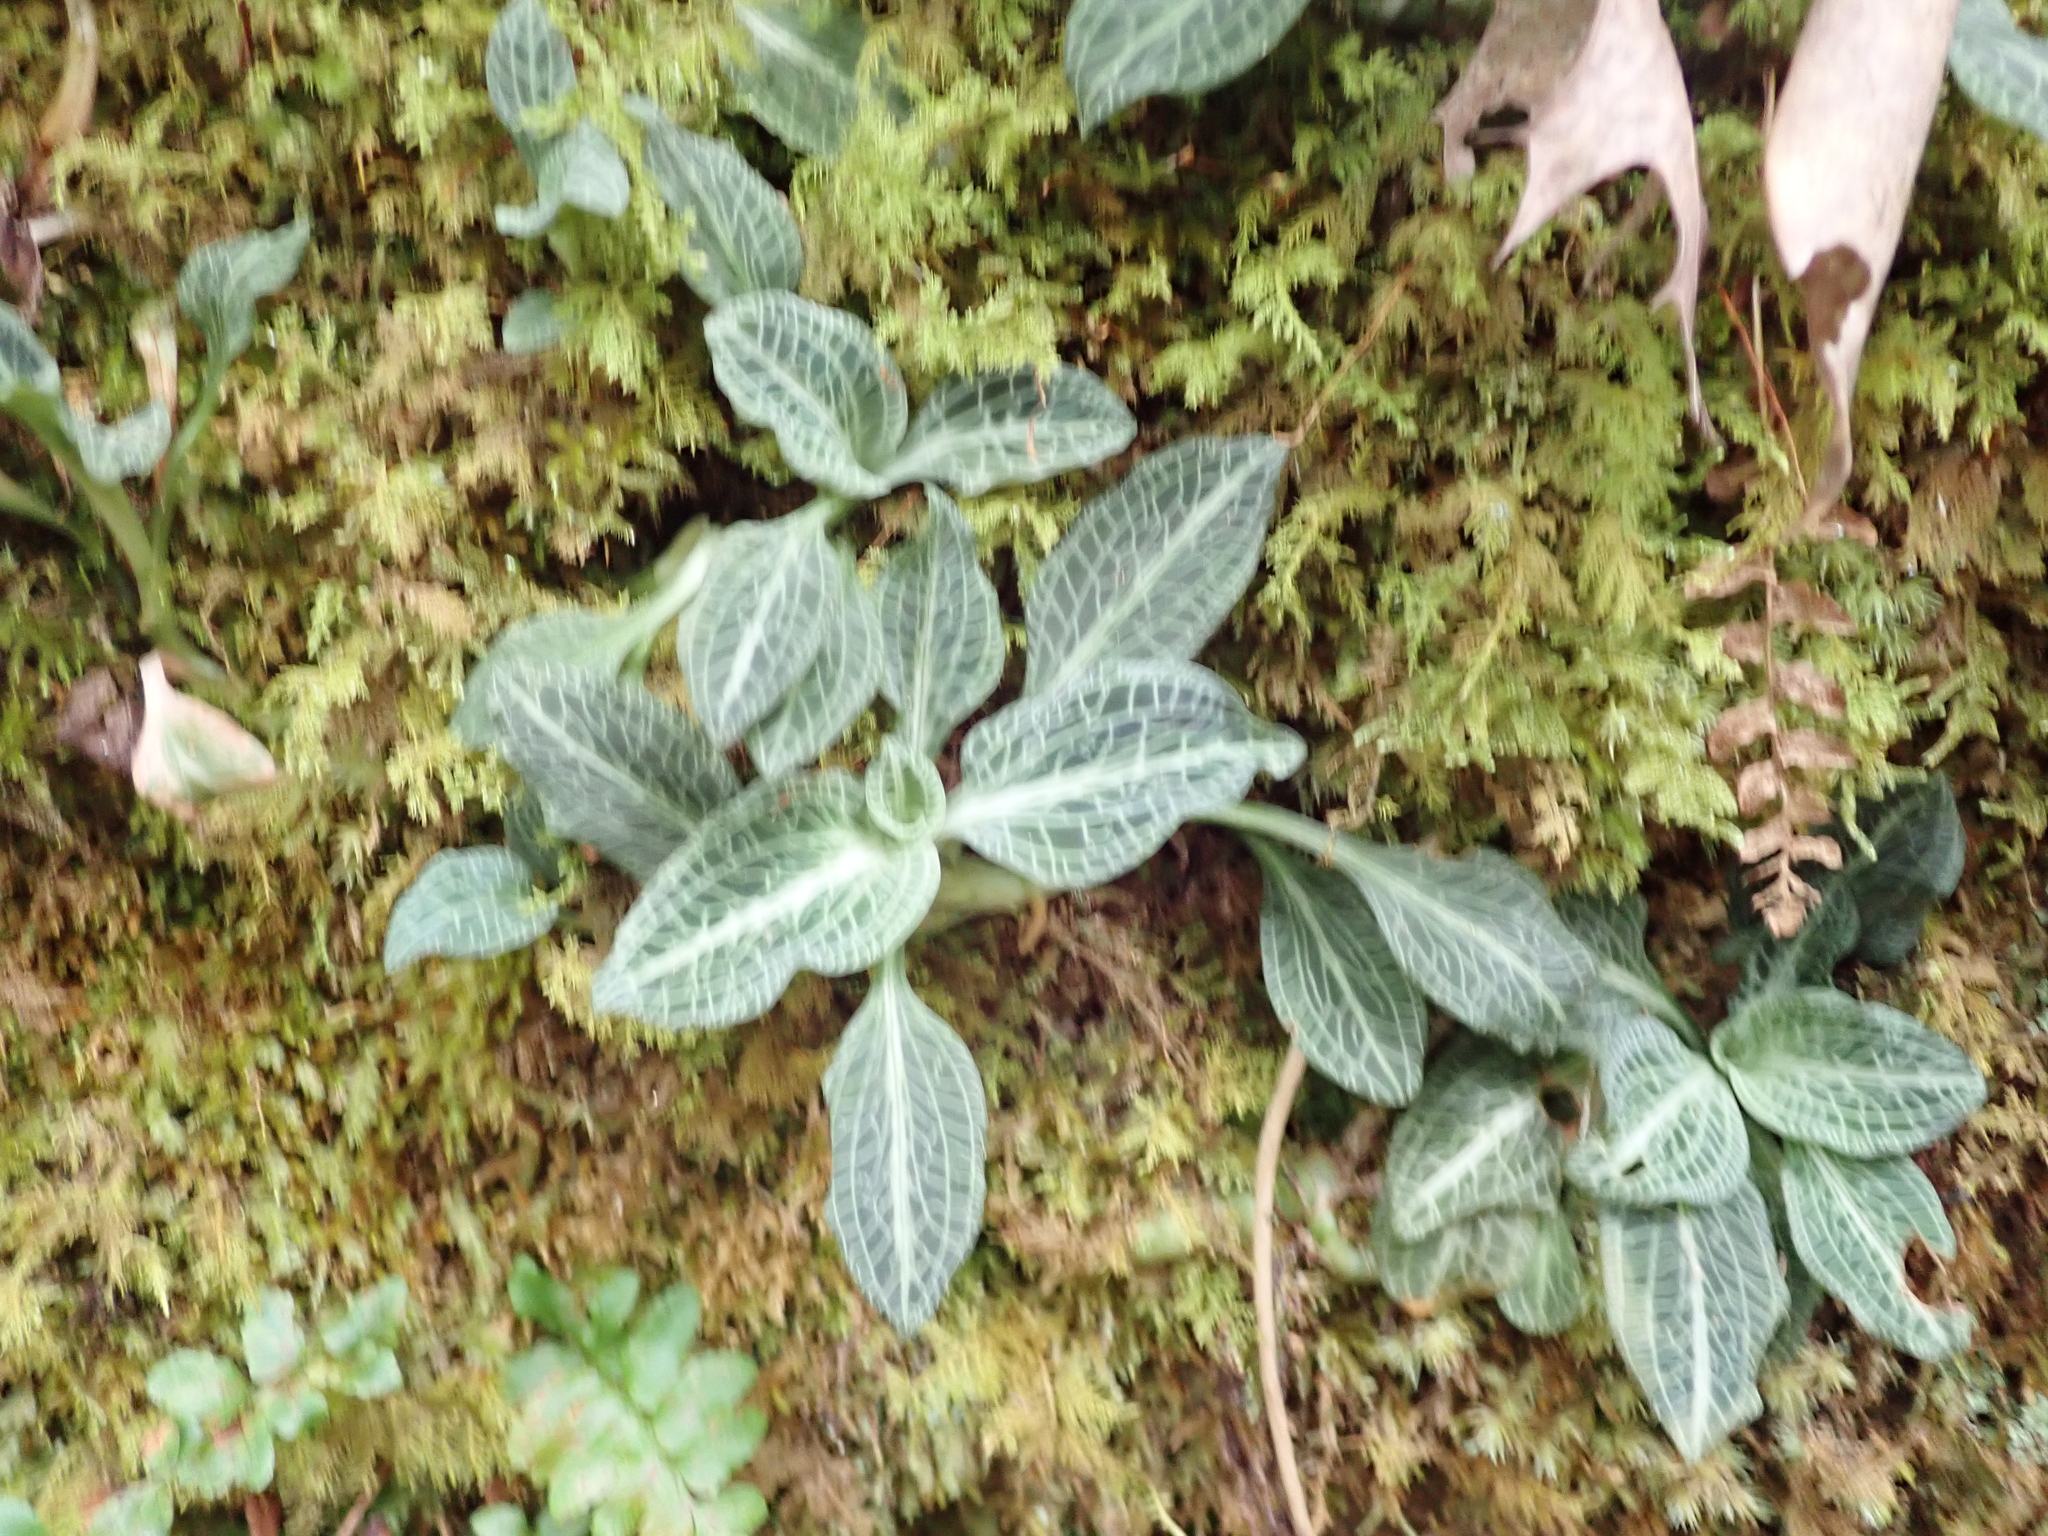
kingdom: Plantae
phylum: Tracheophyta
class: Liliopsida
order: Asparagales
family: Orchidaceae
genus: Goodyera
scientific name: Goodyera pubescens
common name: Downy rattlesnake-plantain
